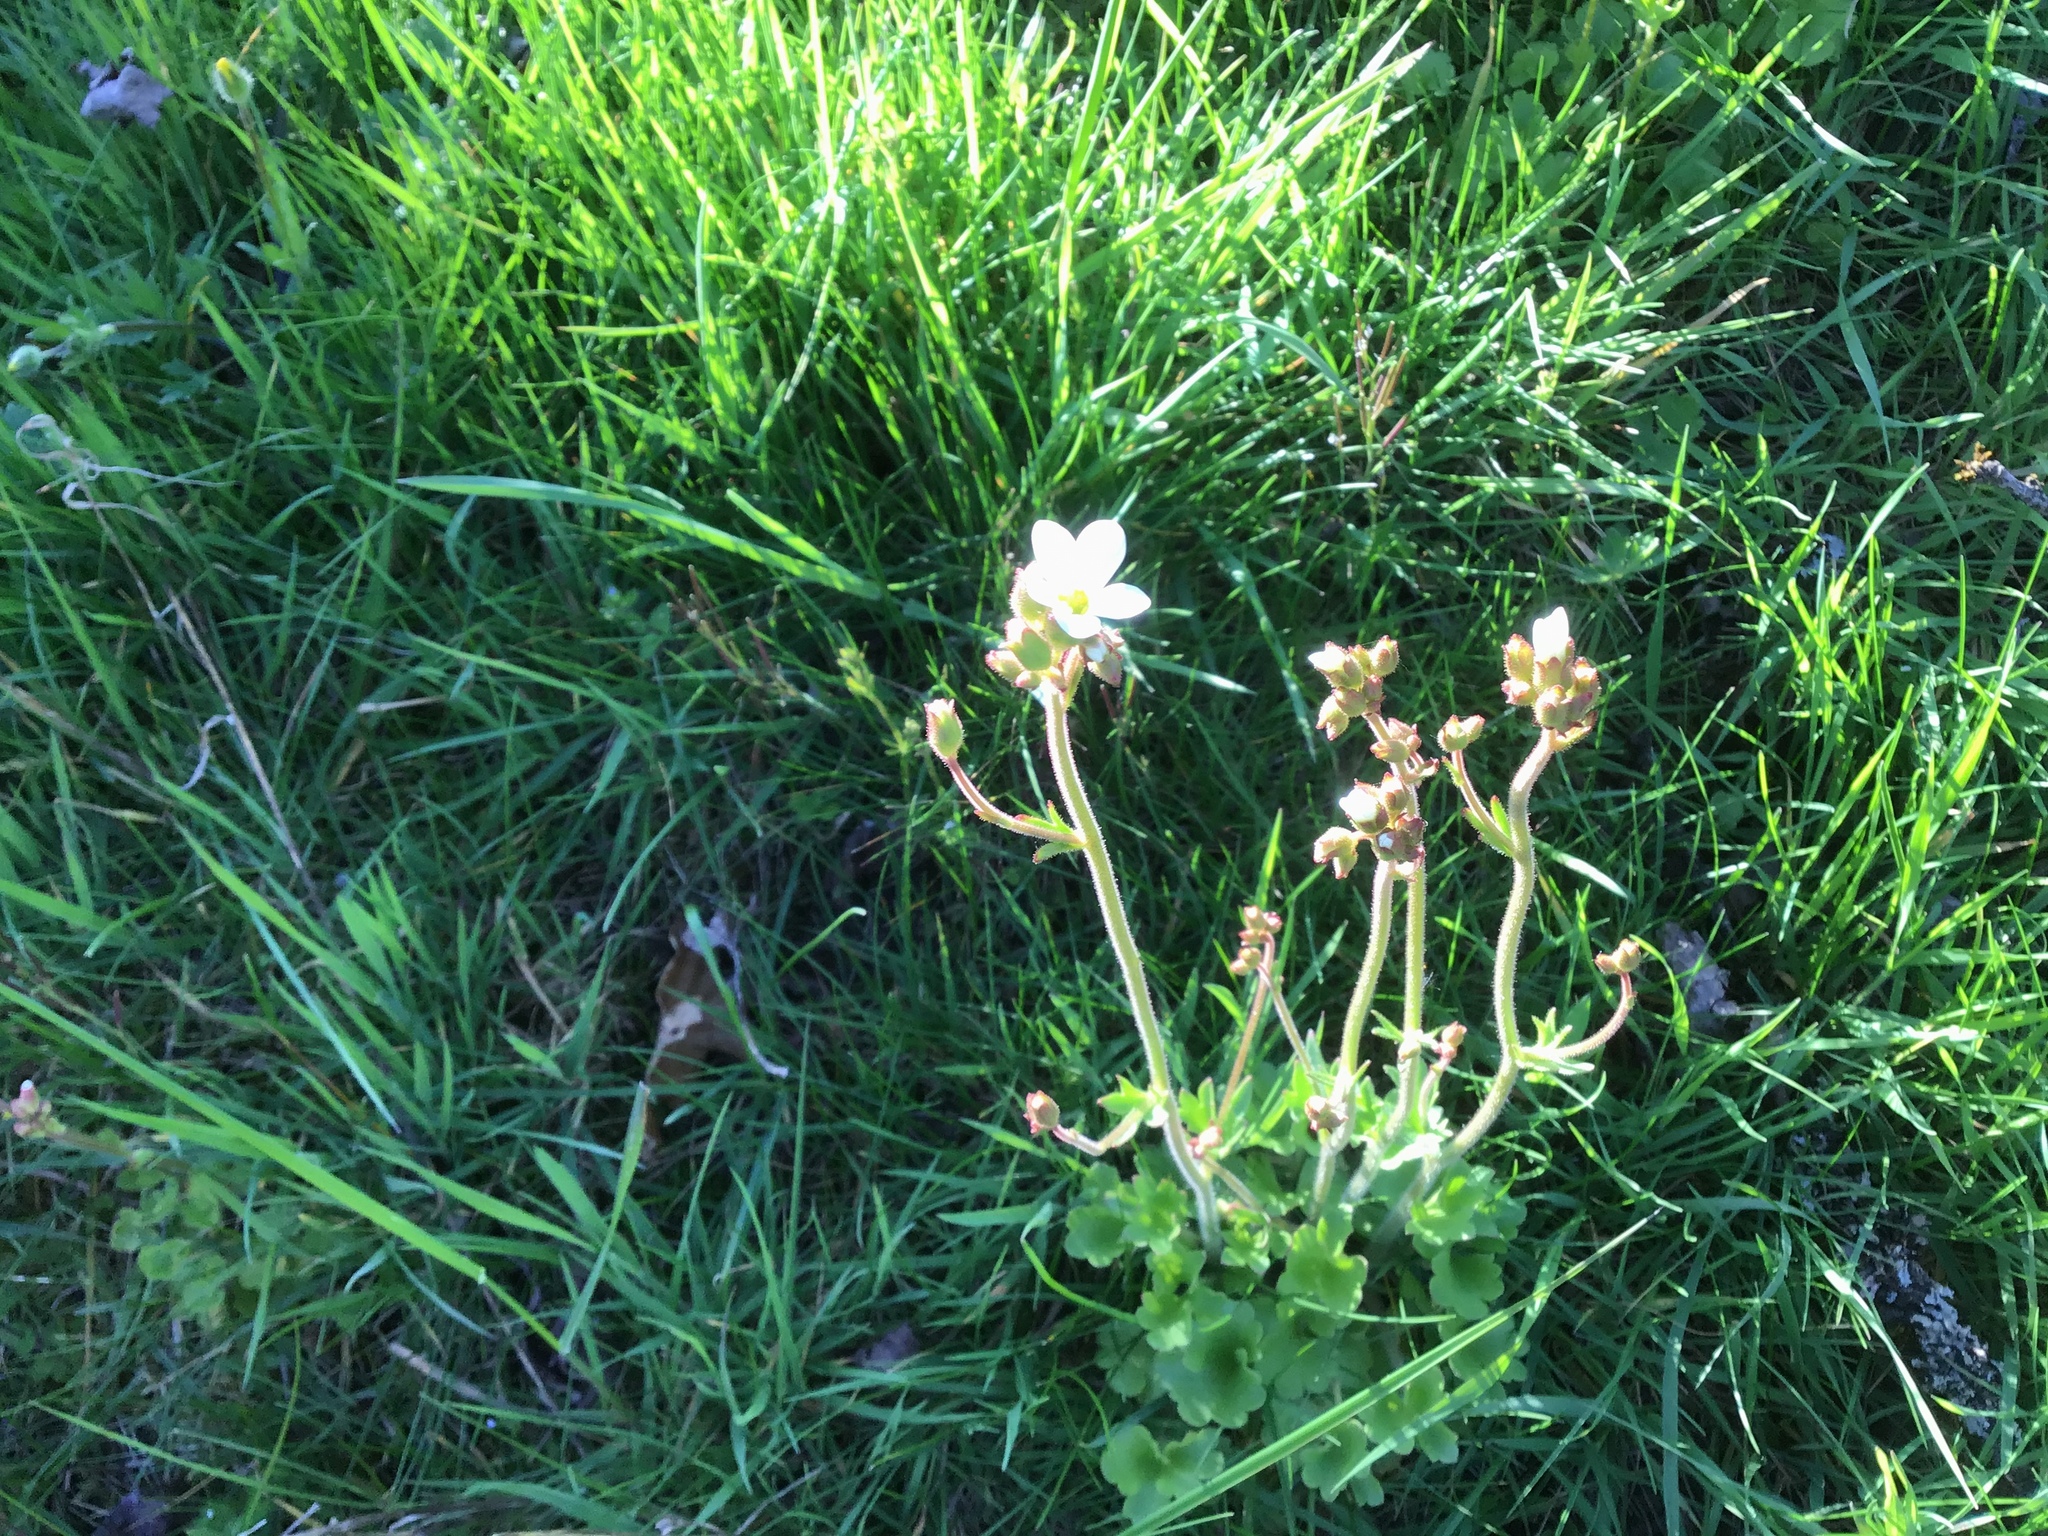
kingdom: Plantae
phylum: Tracheophyta
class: Magnoliopsida
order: Saxifragales
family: Saxifragaceae
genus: Saxifraga
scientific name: Saxifraga granulata
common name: Meadow saxifrage
